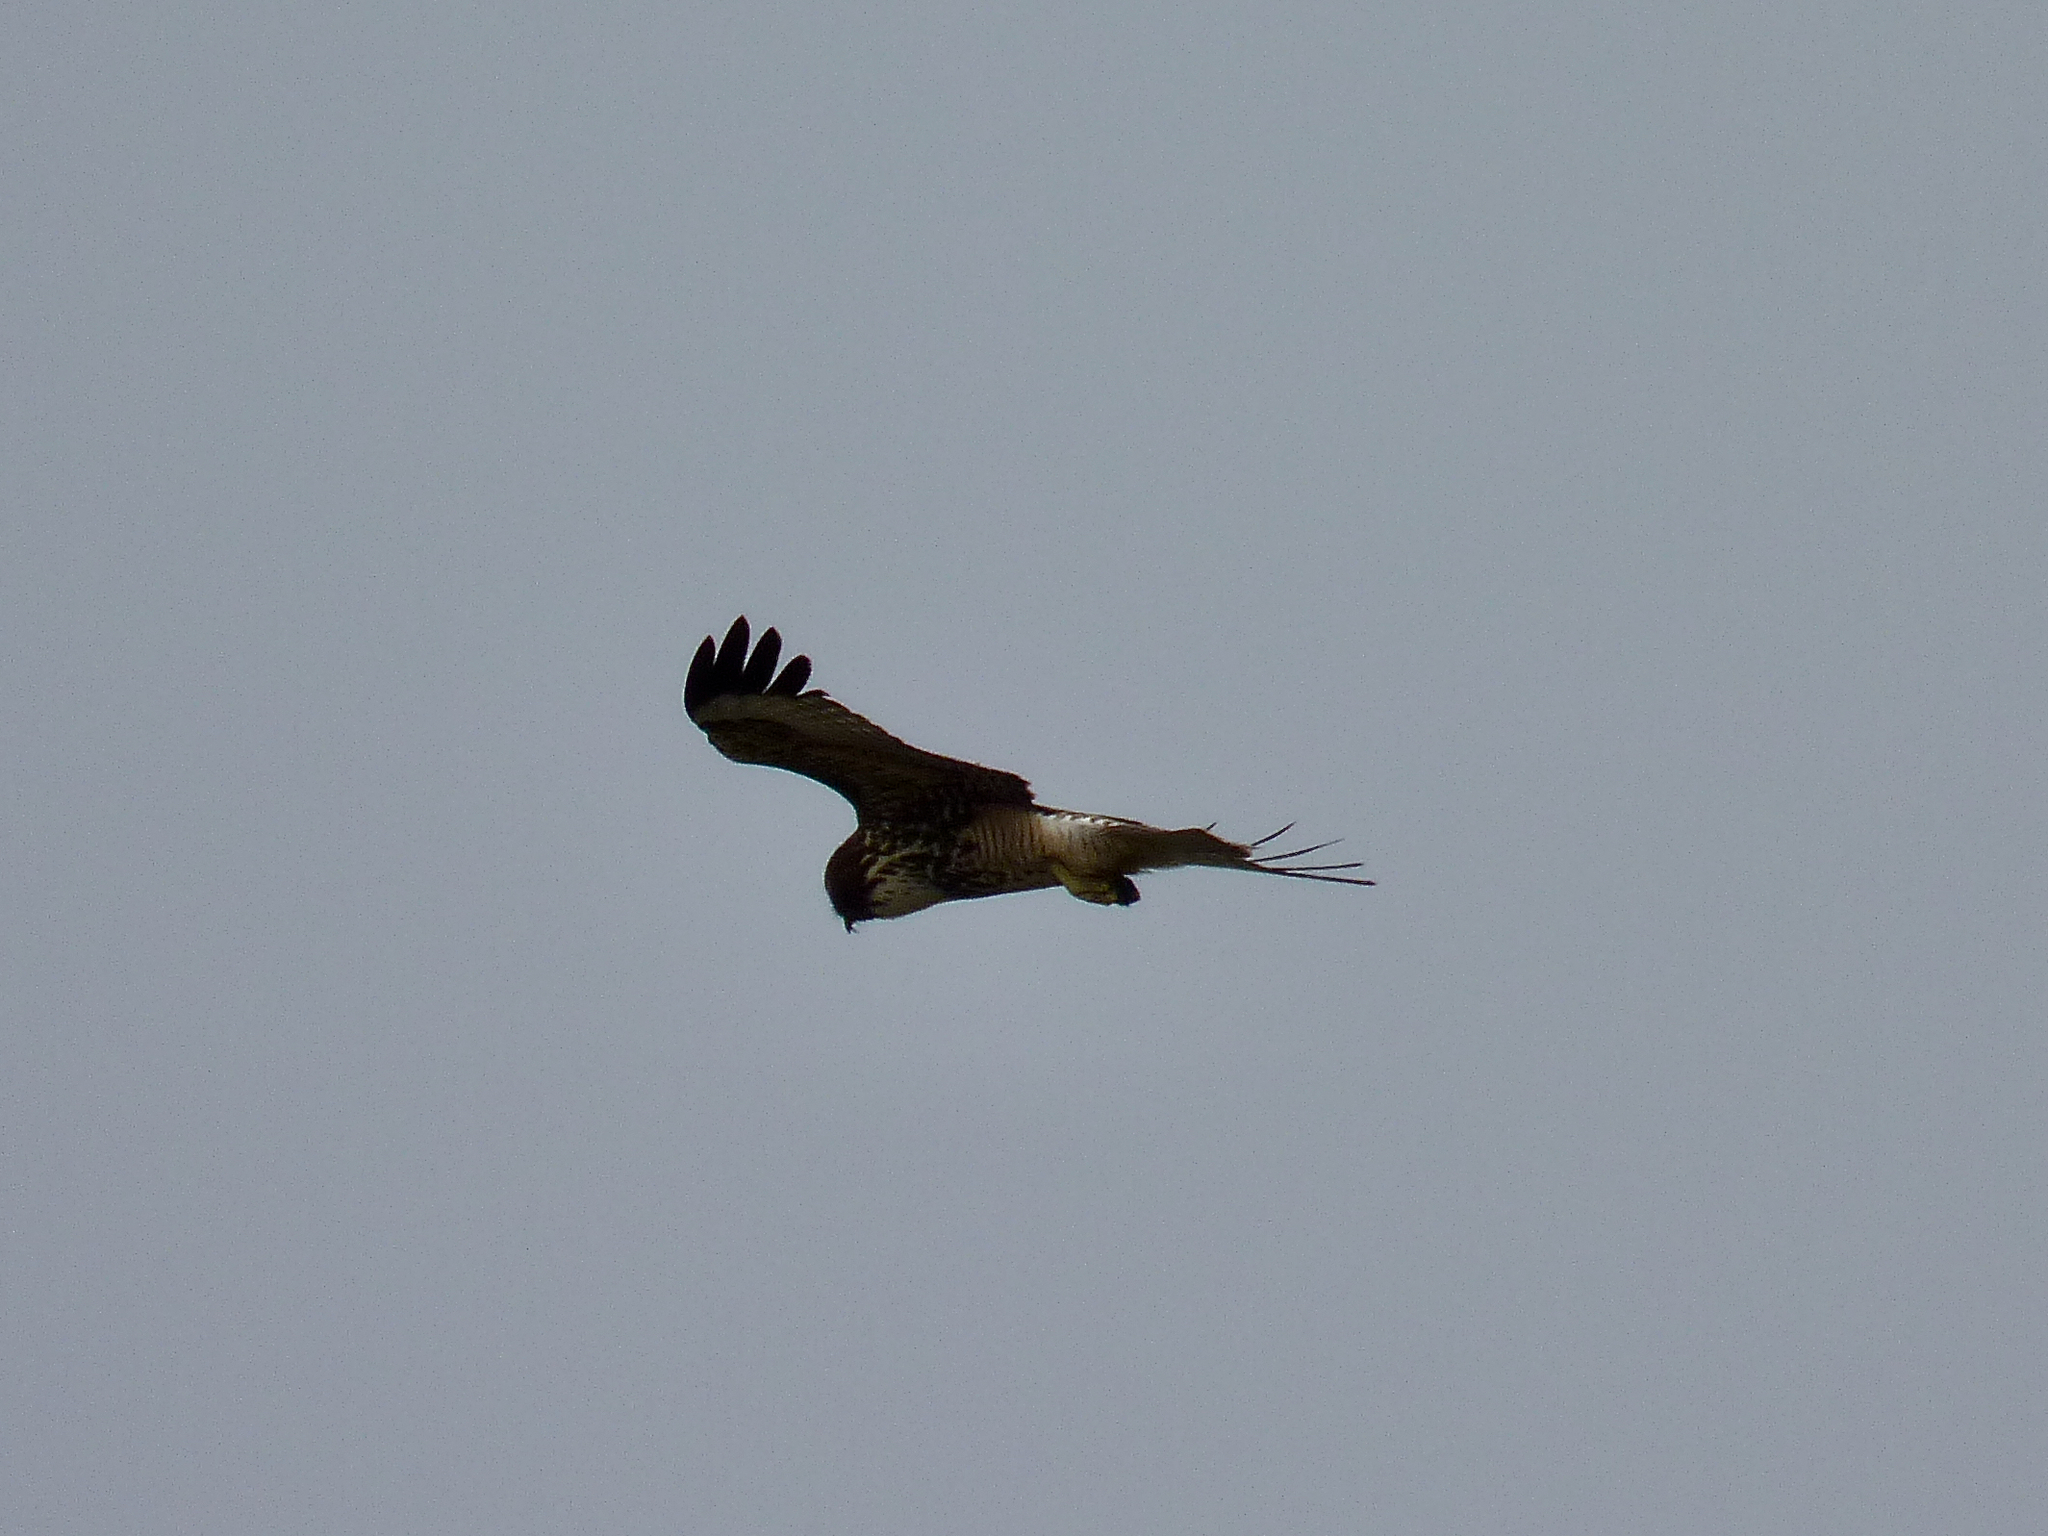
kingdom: Animalia
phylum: Chordata
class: Aves
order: Accipitriformes
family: Accipitridae
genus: Buteo
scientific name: Buteo jamaicensis
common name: Red-tailed hawk
